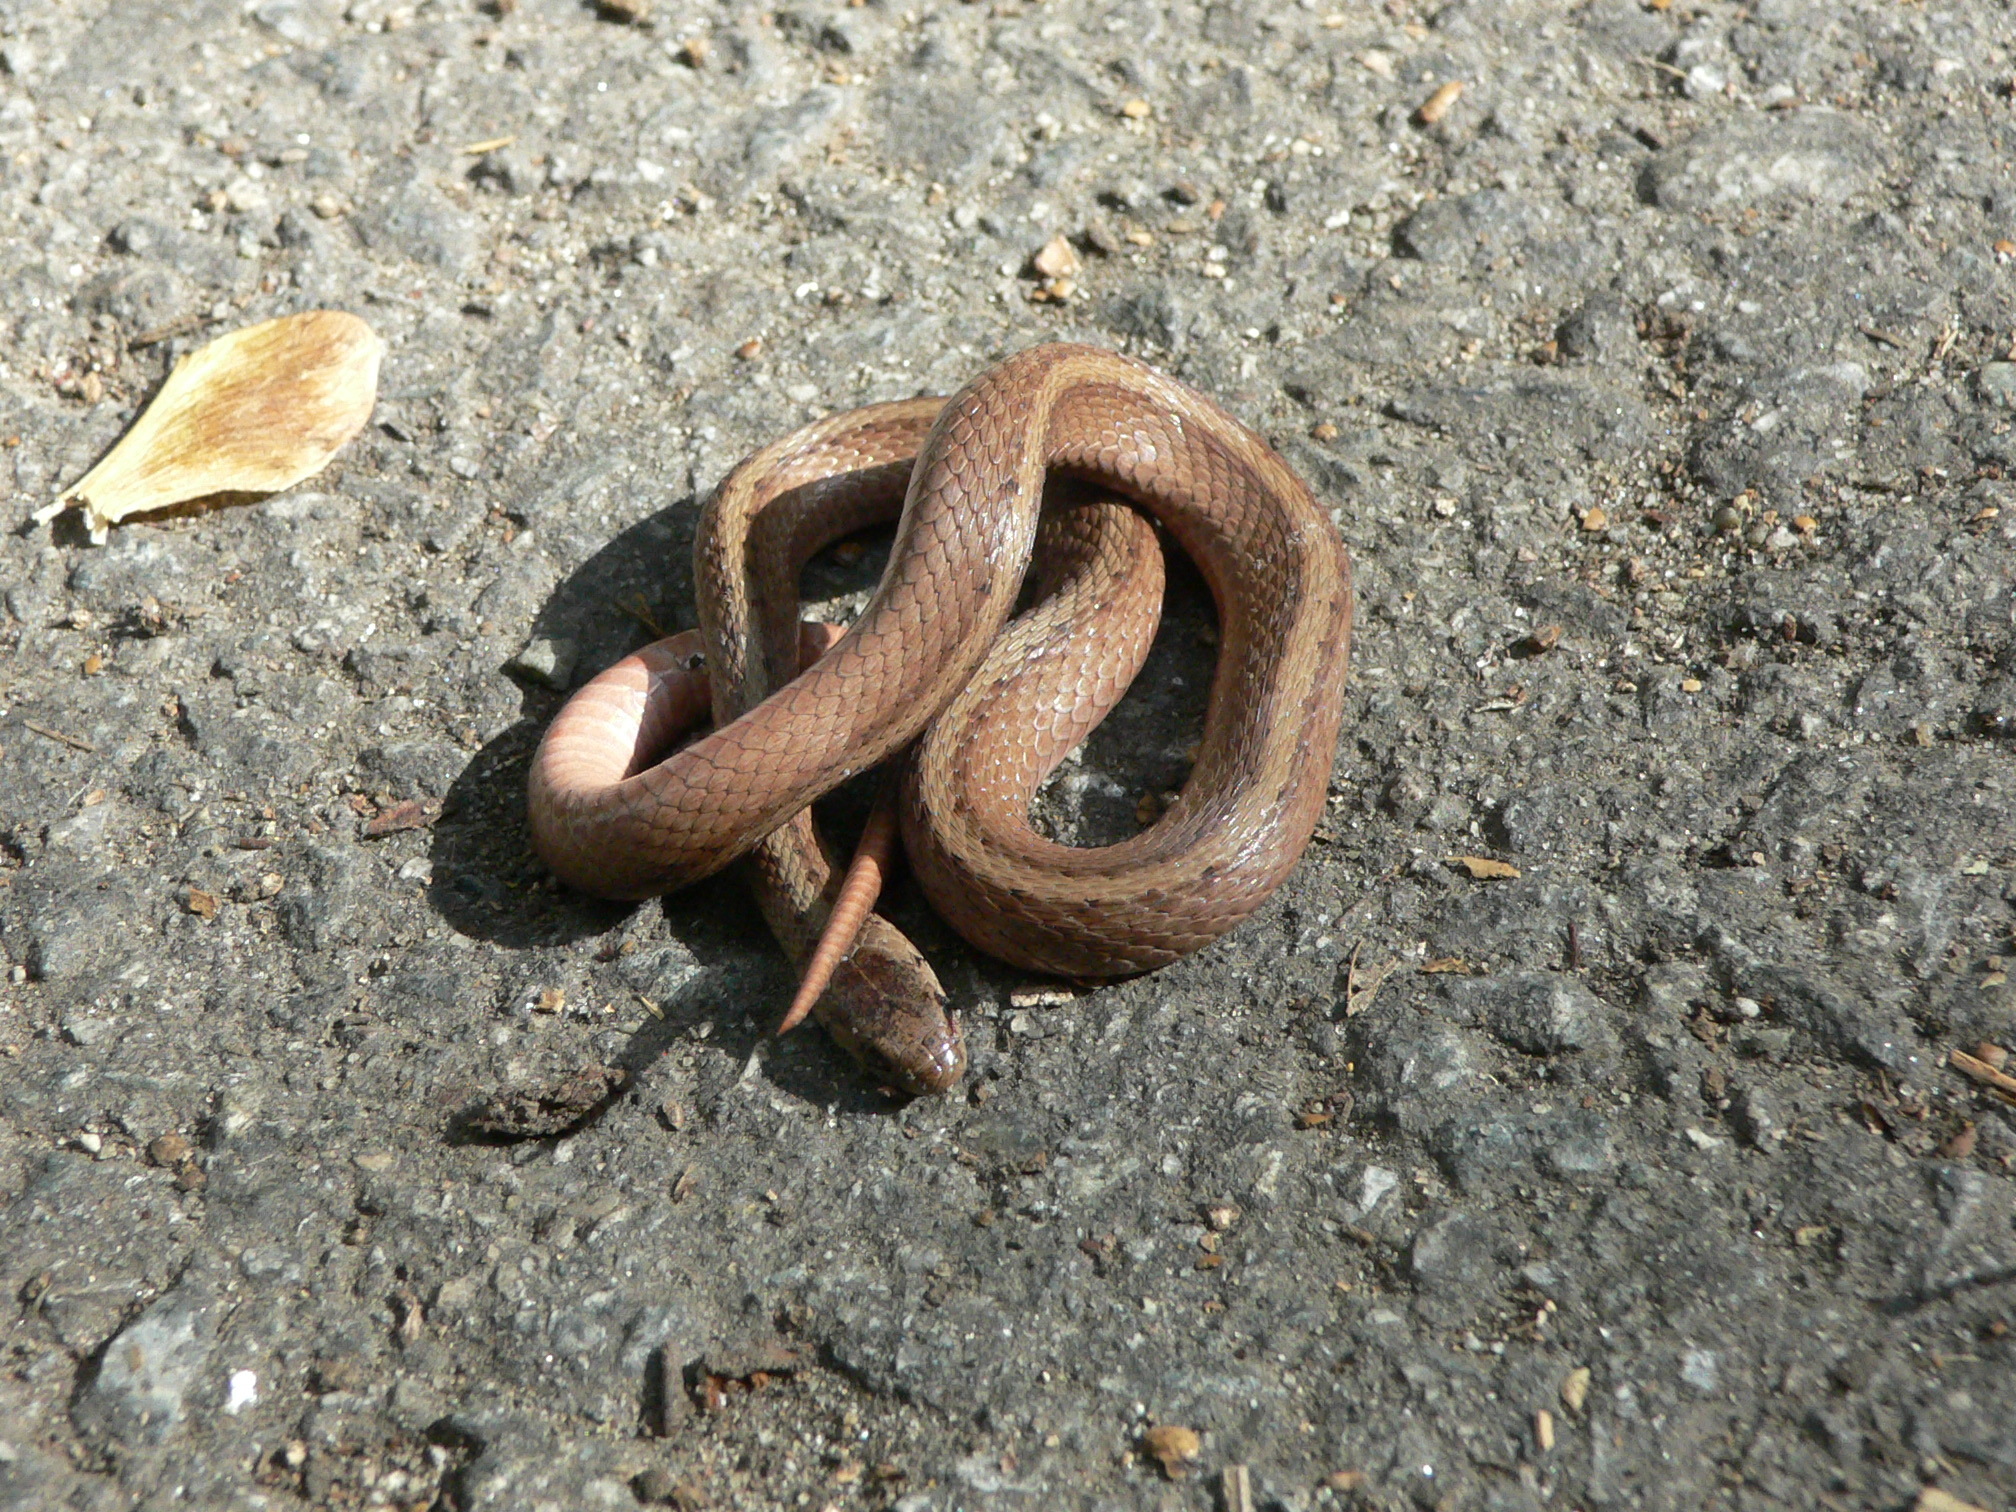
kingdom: Animalia
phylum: Chordata
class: Squamata
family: Colubridae
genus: Storeria
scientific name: Storeria dekayi
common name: (dekay’s) brown snake
